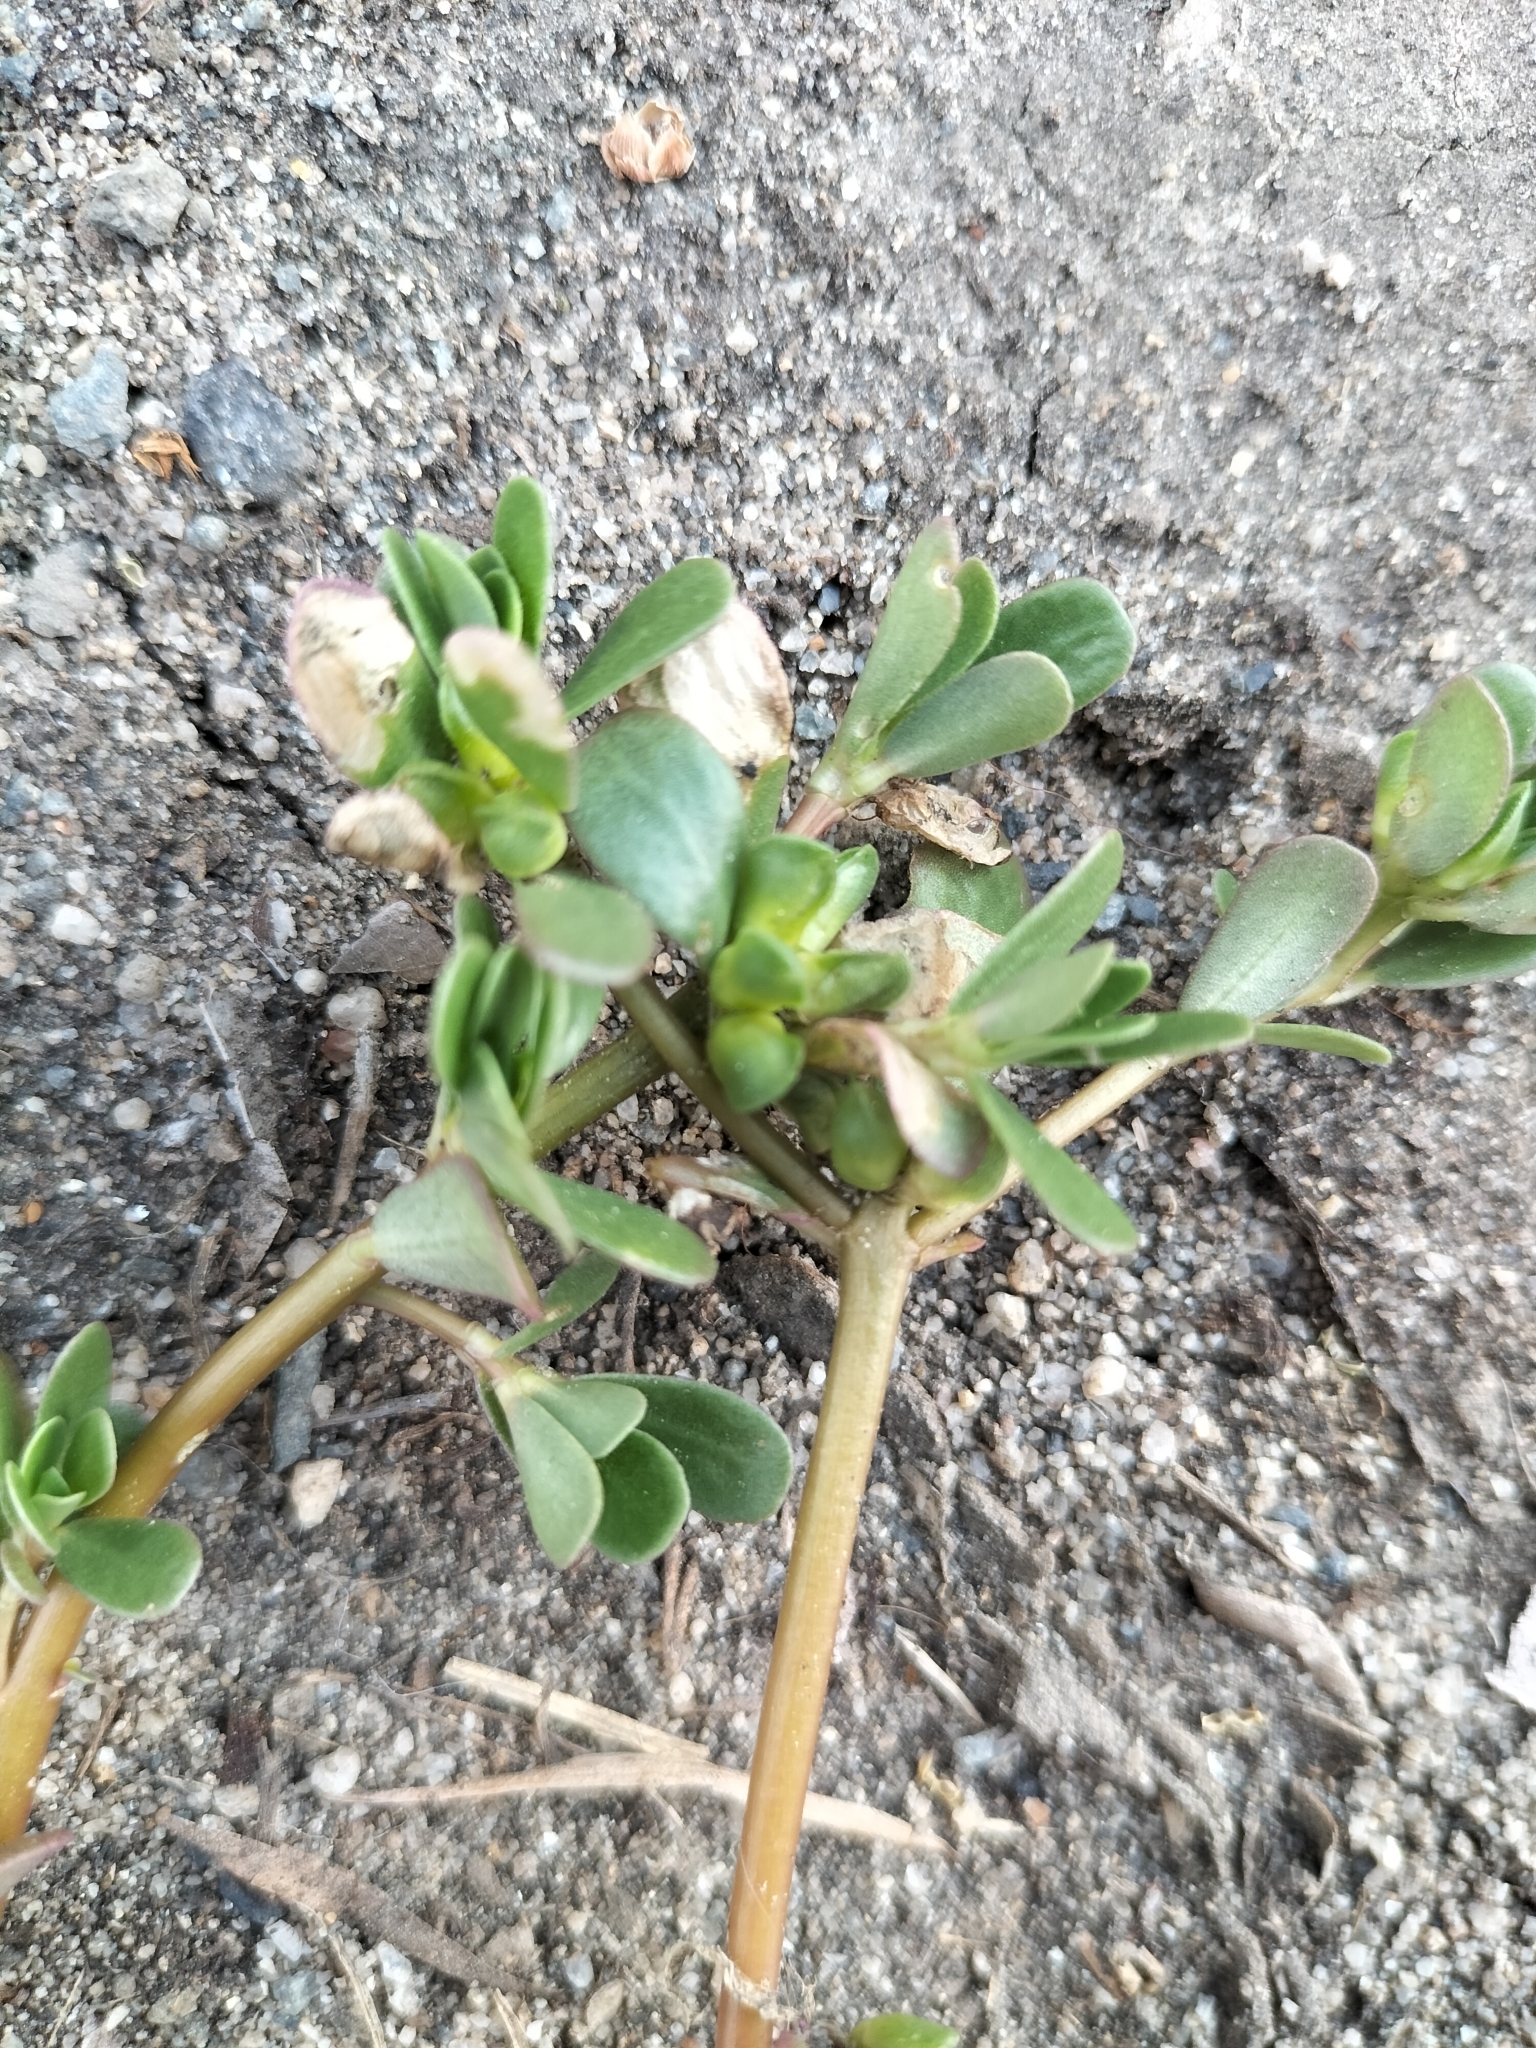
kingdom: Plantae
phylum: Tracheophyta
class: Magnoliopsida
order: Caryophyllales
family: Portulacaceae
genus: Portulaca
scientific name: Portulaca oleracea
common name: Common purslane
